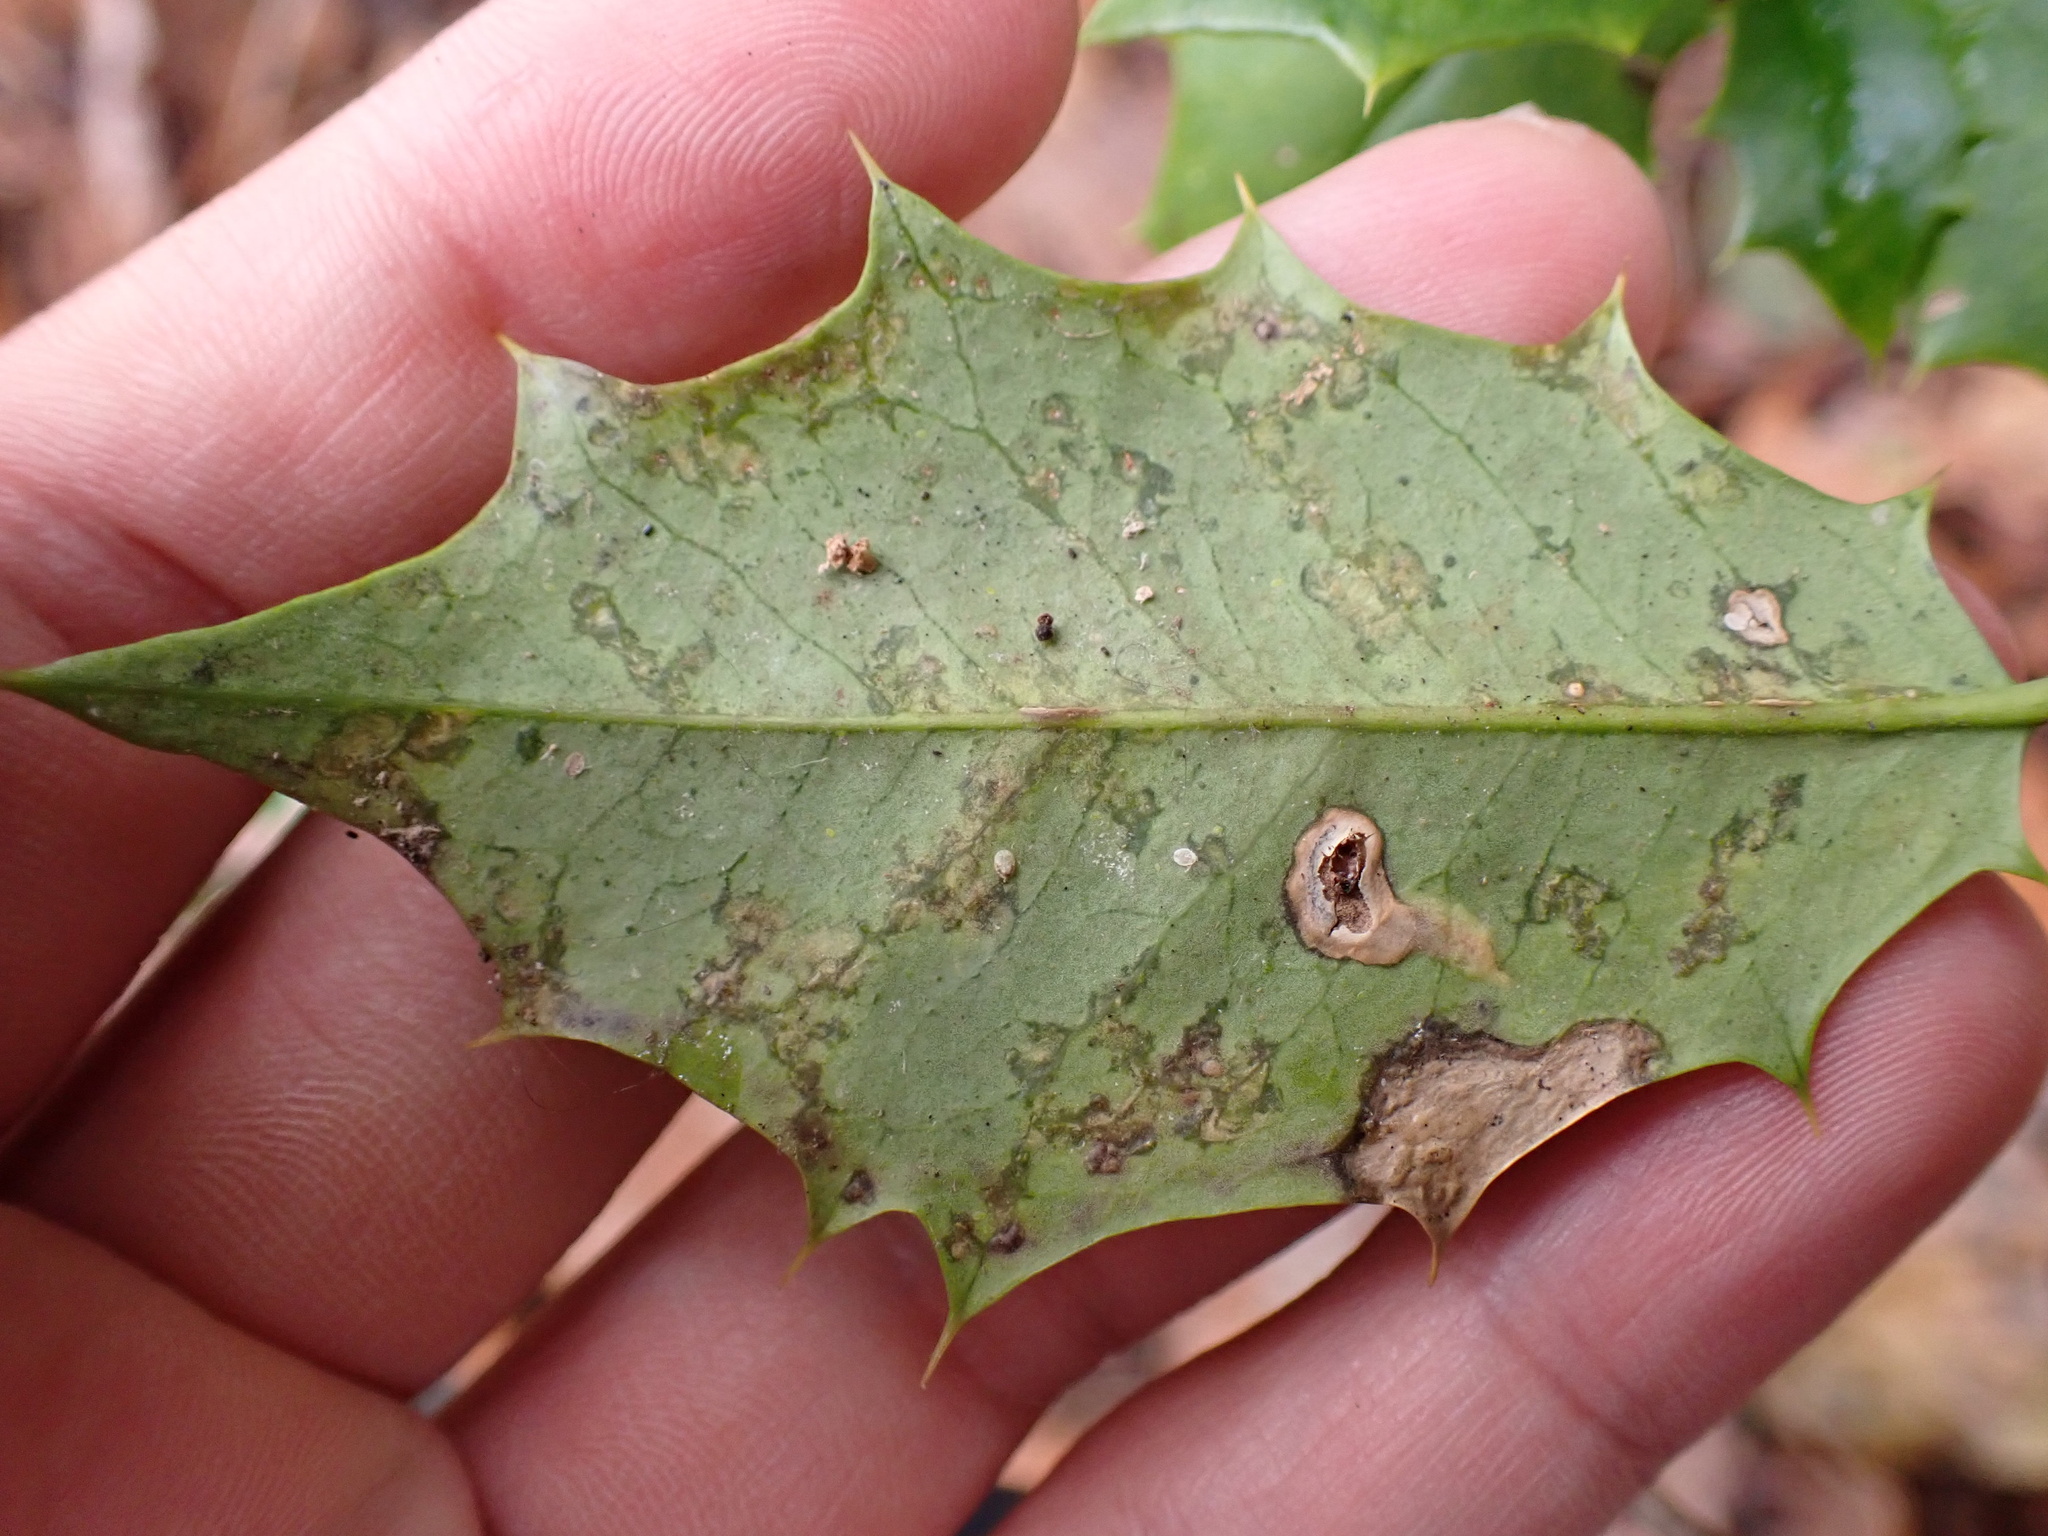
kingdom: Animalia
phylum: Arthropoda
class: Insecta
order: Diptera
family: Agromyzidae
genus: Phytomyza
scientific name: Phytomyza opacae
